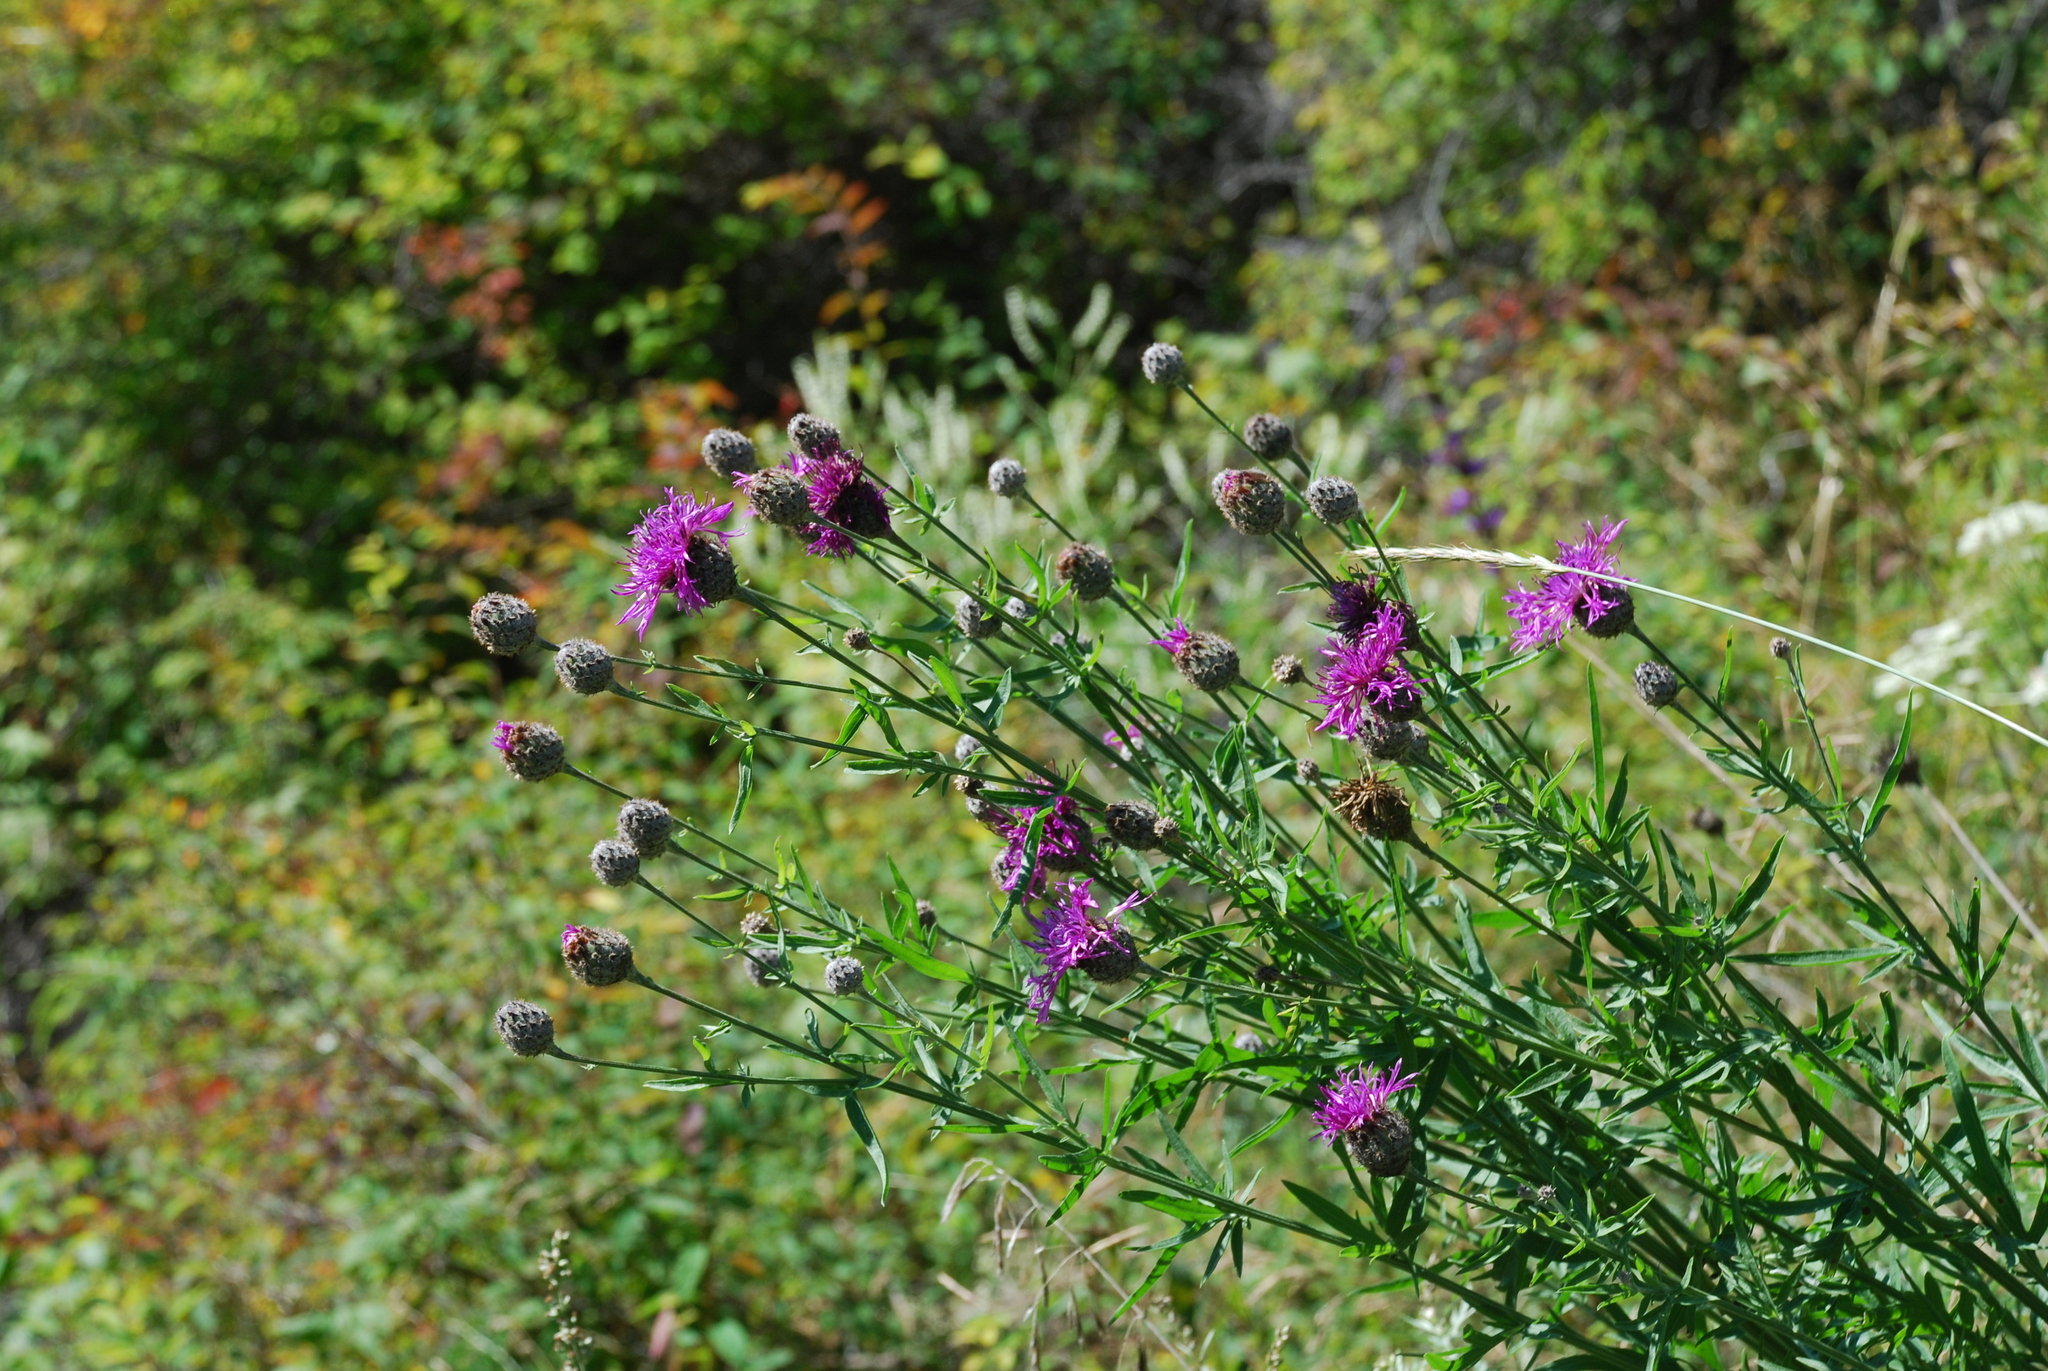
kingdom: Plantae
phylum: Tracheophyta
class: Magnoliopsida
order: Asterales
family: Asteraceae
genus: Centaurea
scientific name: Centaurea scabiosa
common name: Greater knapweed
